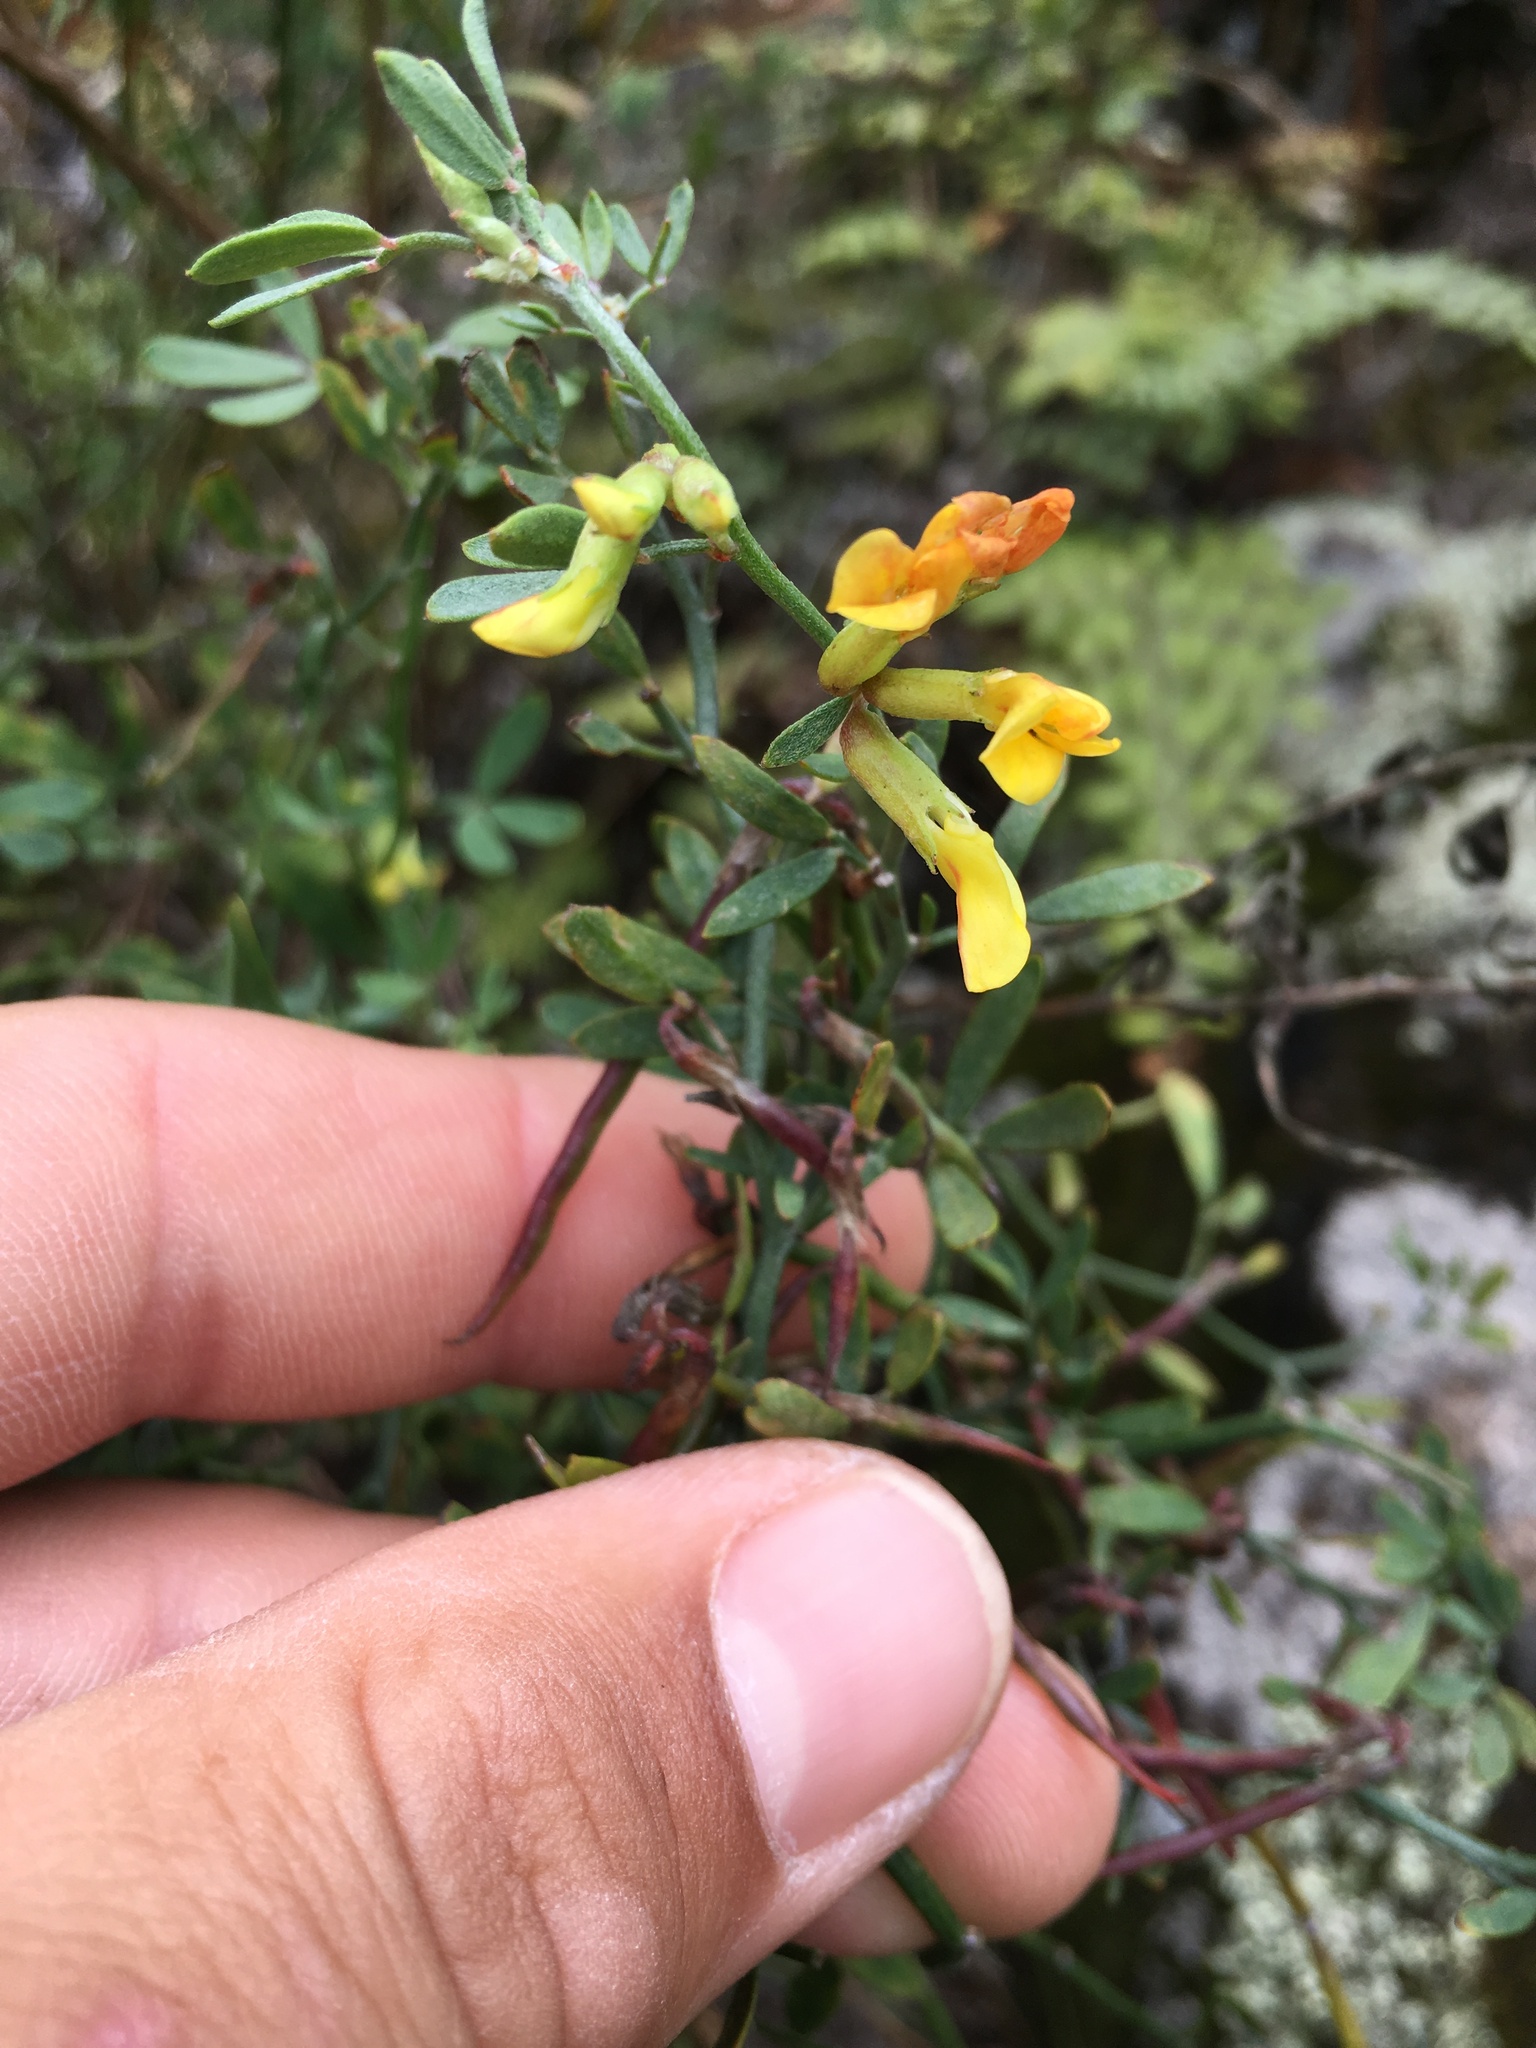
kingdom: Plantae
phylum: Tracheophyta
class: Magnoliopsida
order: Fabales
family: Fabaceae
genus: Acmispon
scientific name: Acmispon dendroideus
